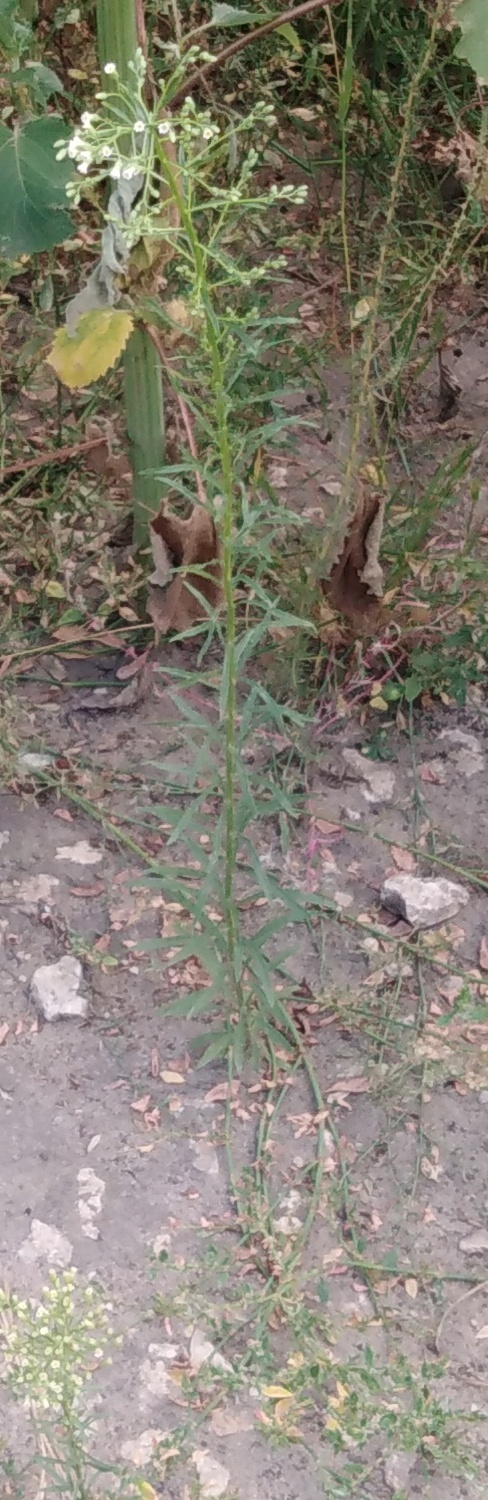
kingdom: Plantae
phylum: Tracheophyta
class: Magnoliopsida
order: Asterales
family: Asteraceae
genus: Erigeron
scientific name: Erigeron canadensis
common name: Canadian fleabane
